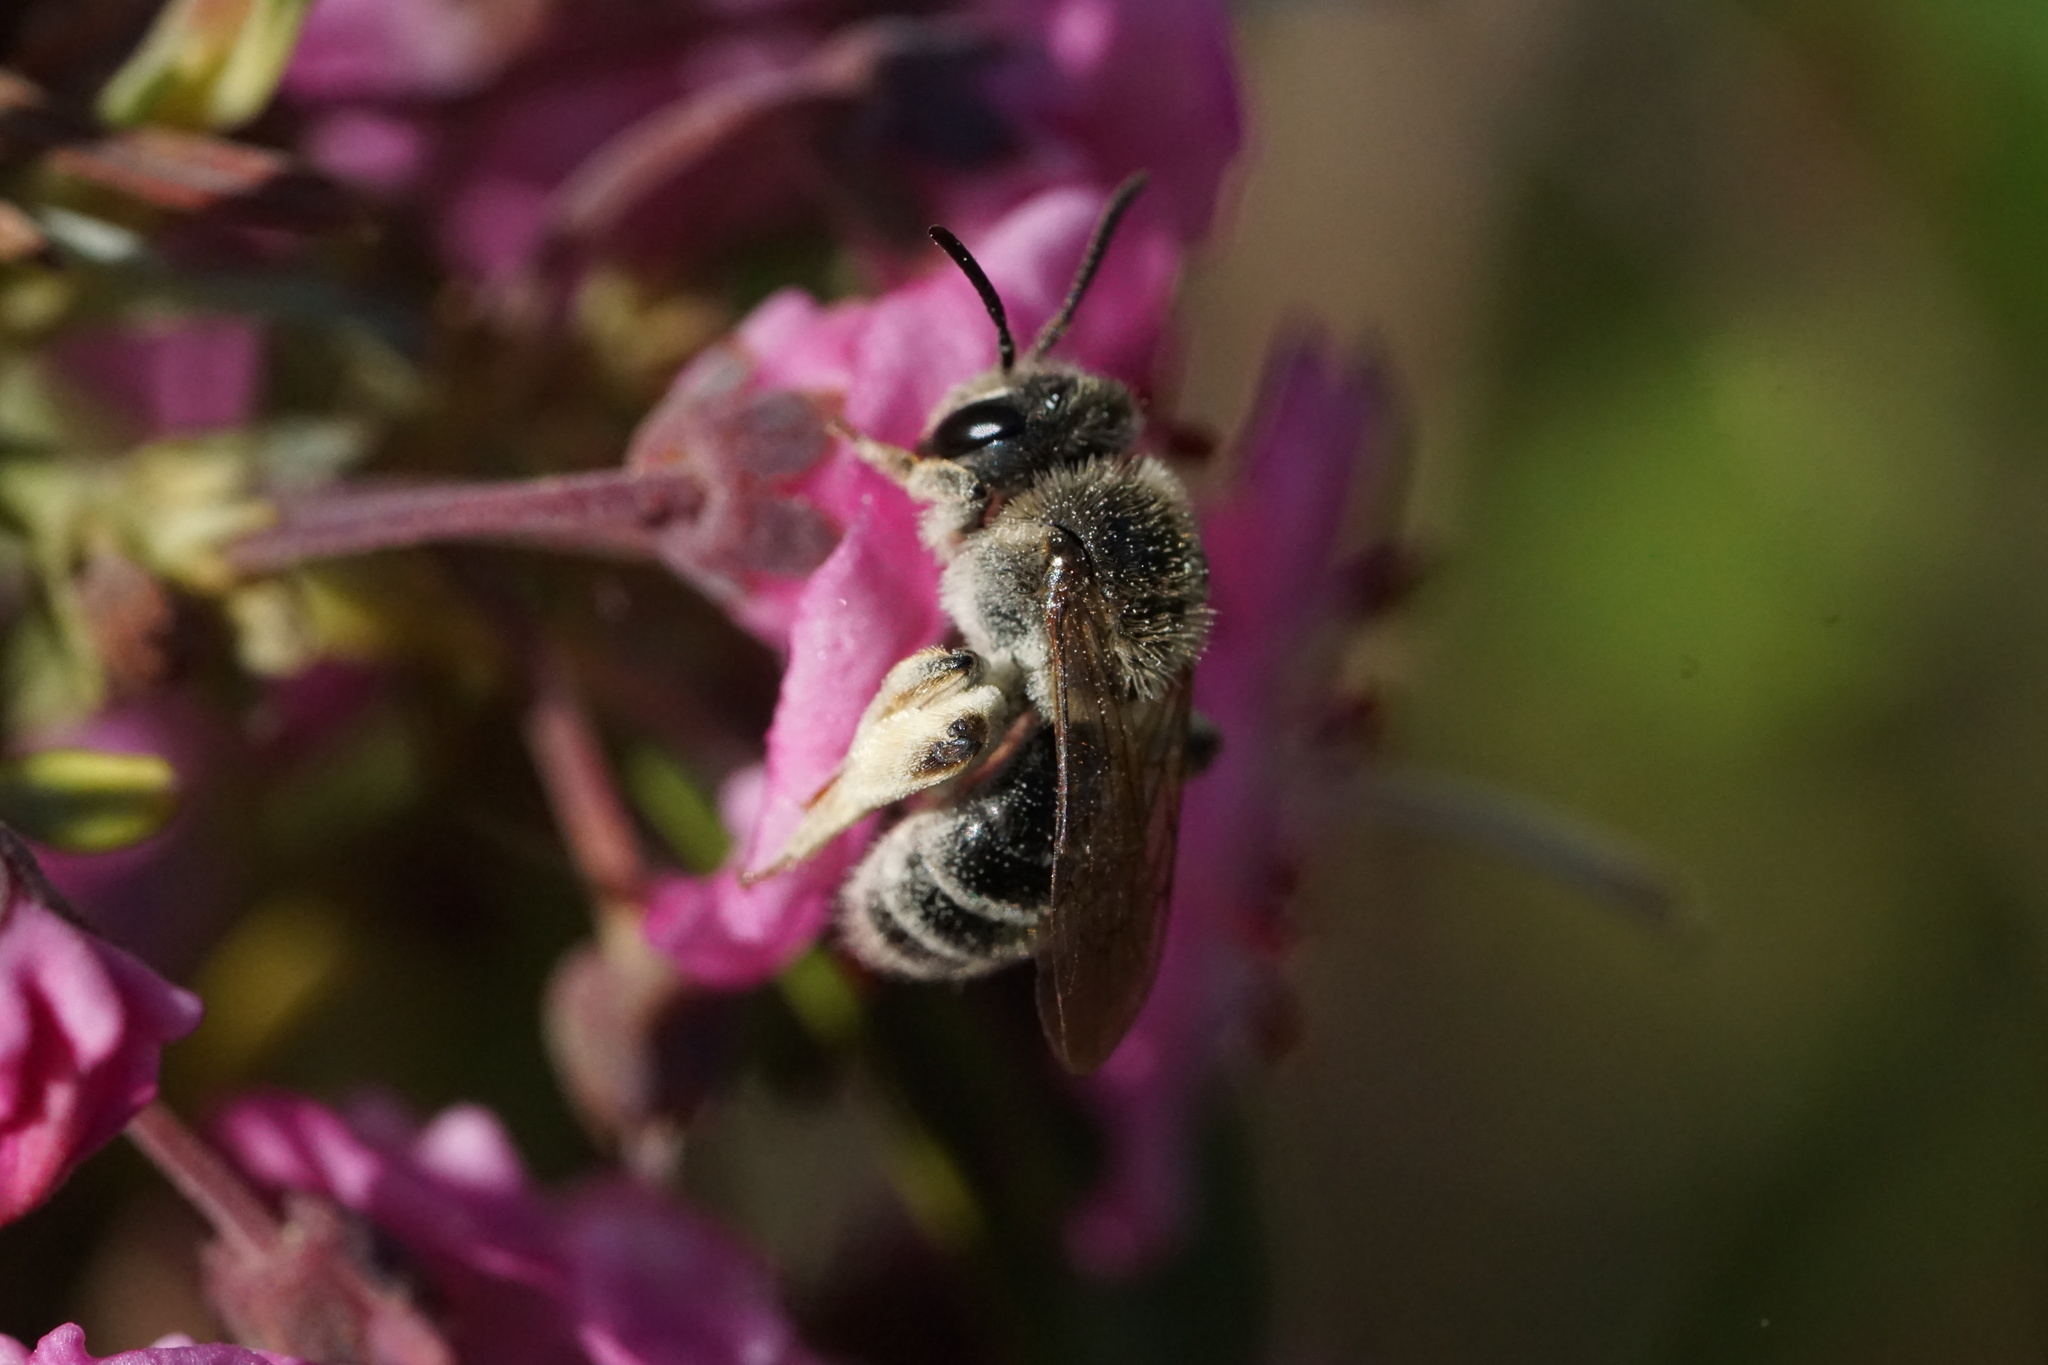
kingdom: Animalia
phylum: Arthropoda
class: Insecta
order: Hymenoptera
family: Andrenidae
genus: Andrena
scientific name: Andrena kalmiae
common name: Kalmia miner bee
